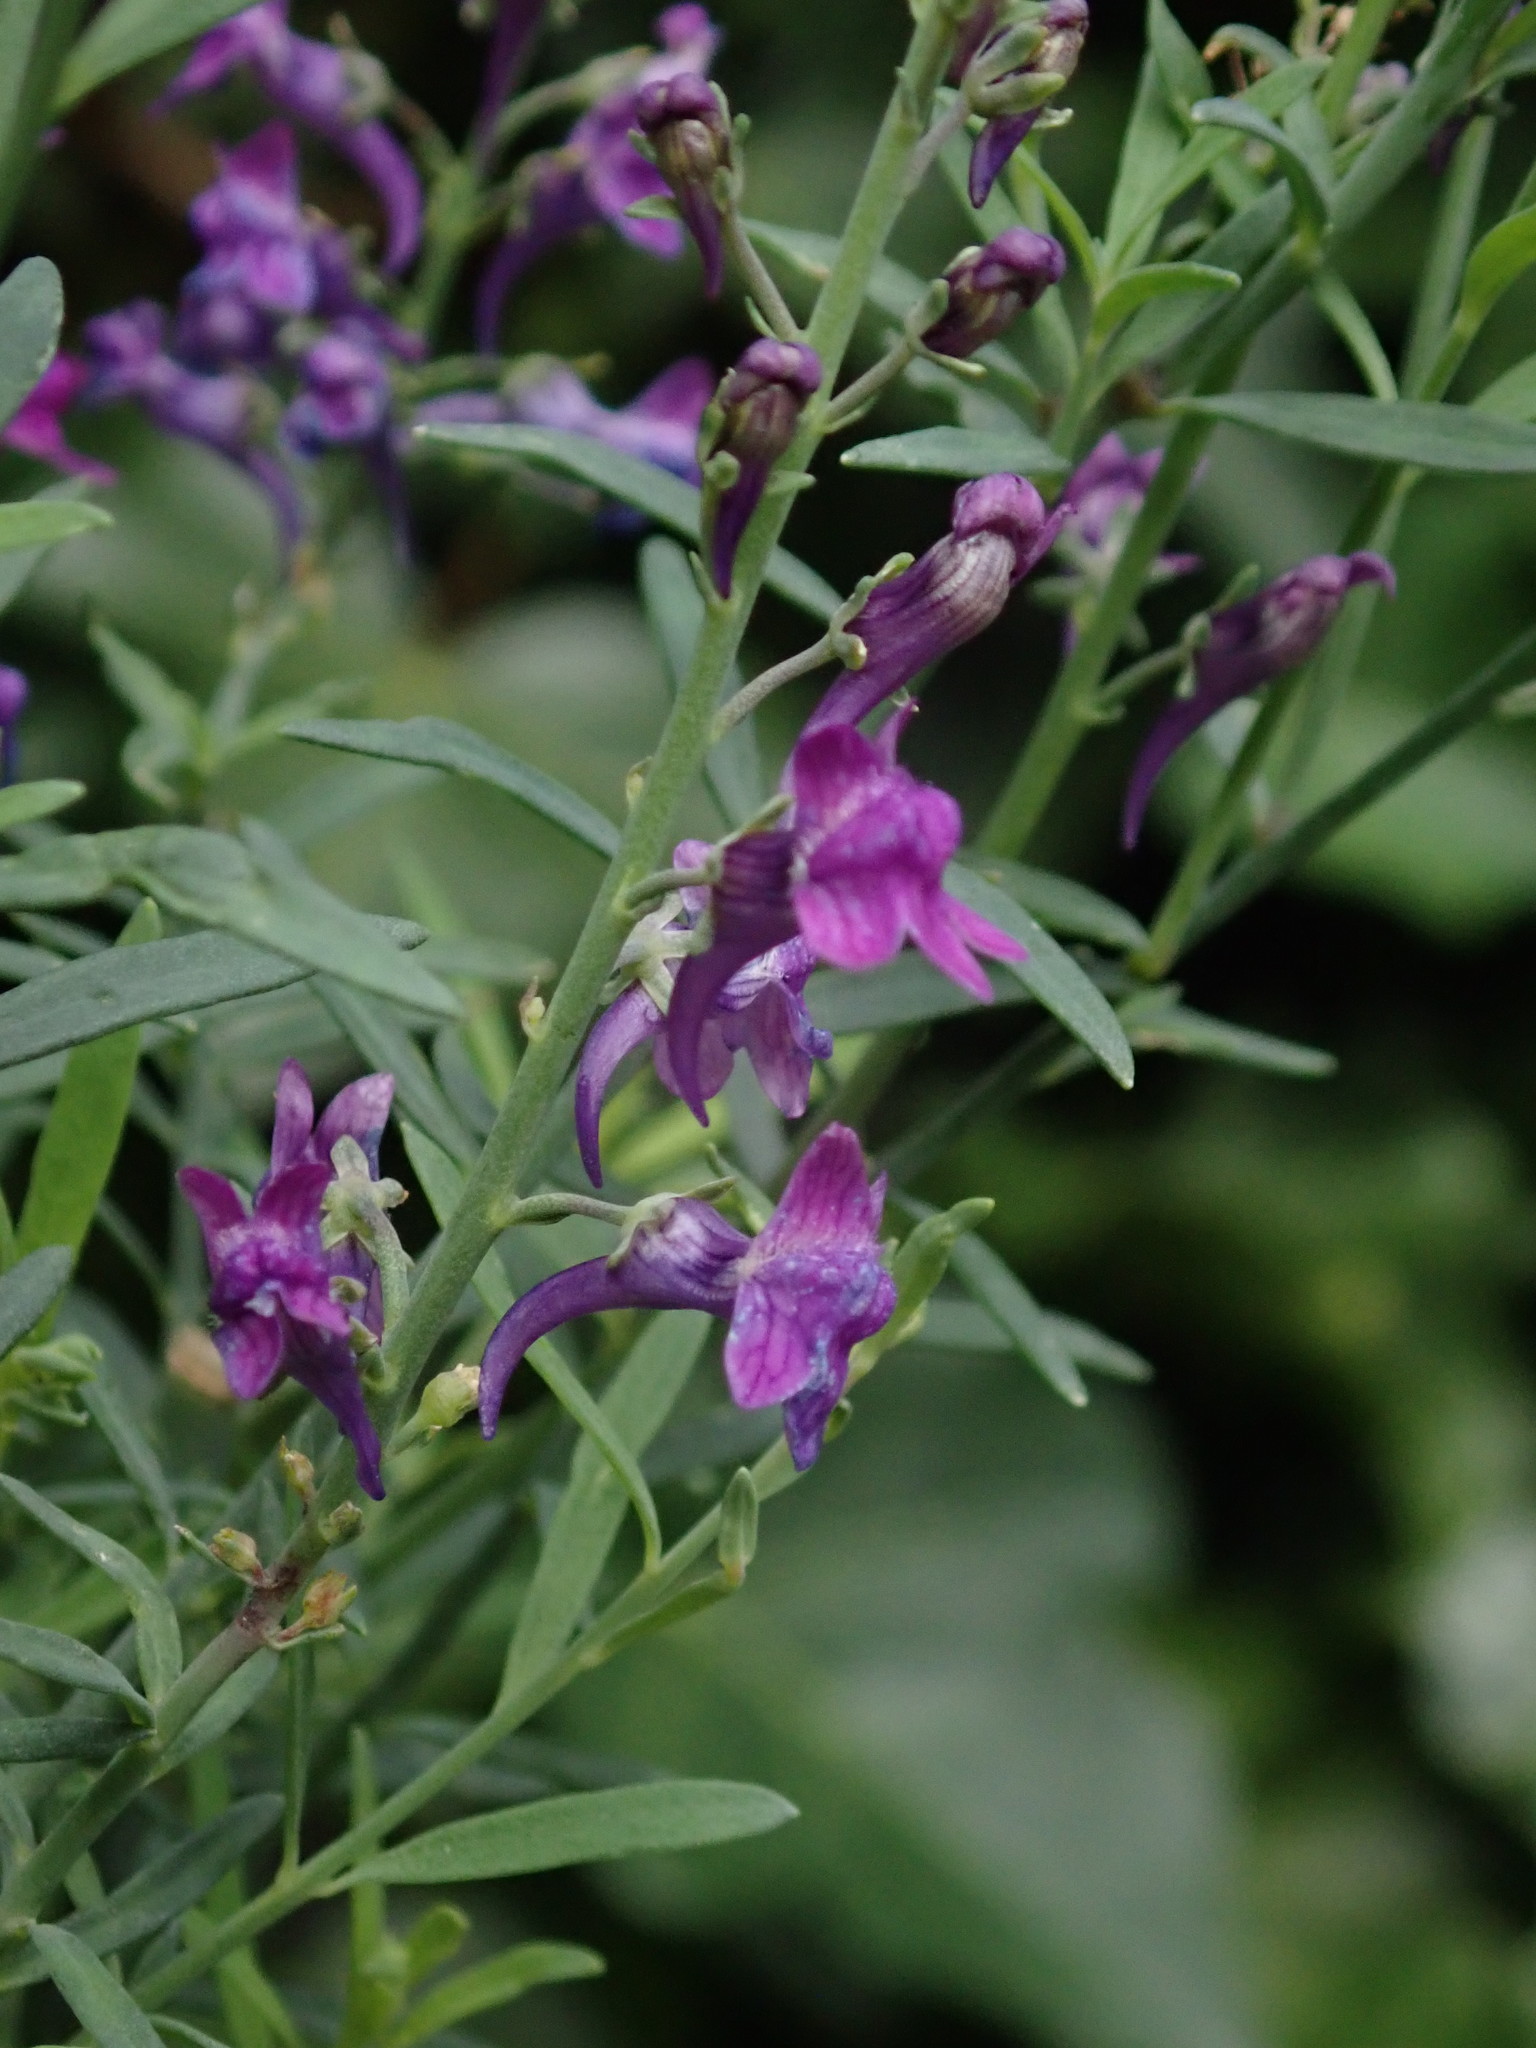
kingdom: Plantae
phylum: Tracheophyta
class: Magnoliopsida
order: Lamiales
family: Plantaginaceae
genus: Linaria
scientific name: Linaria purpurea
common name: Purple toadflax
